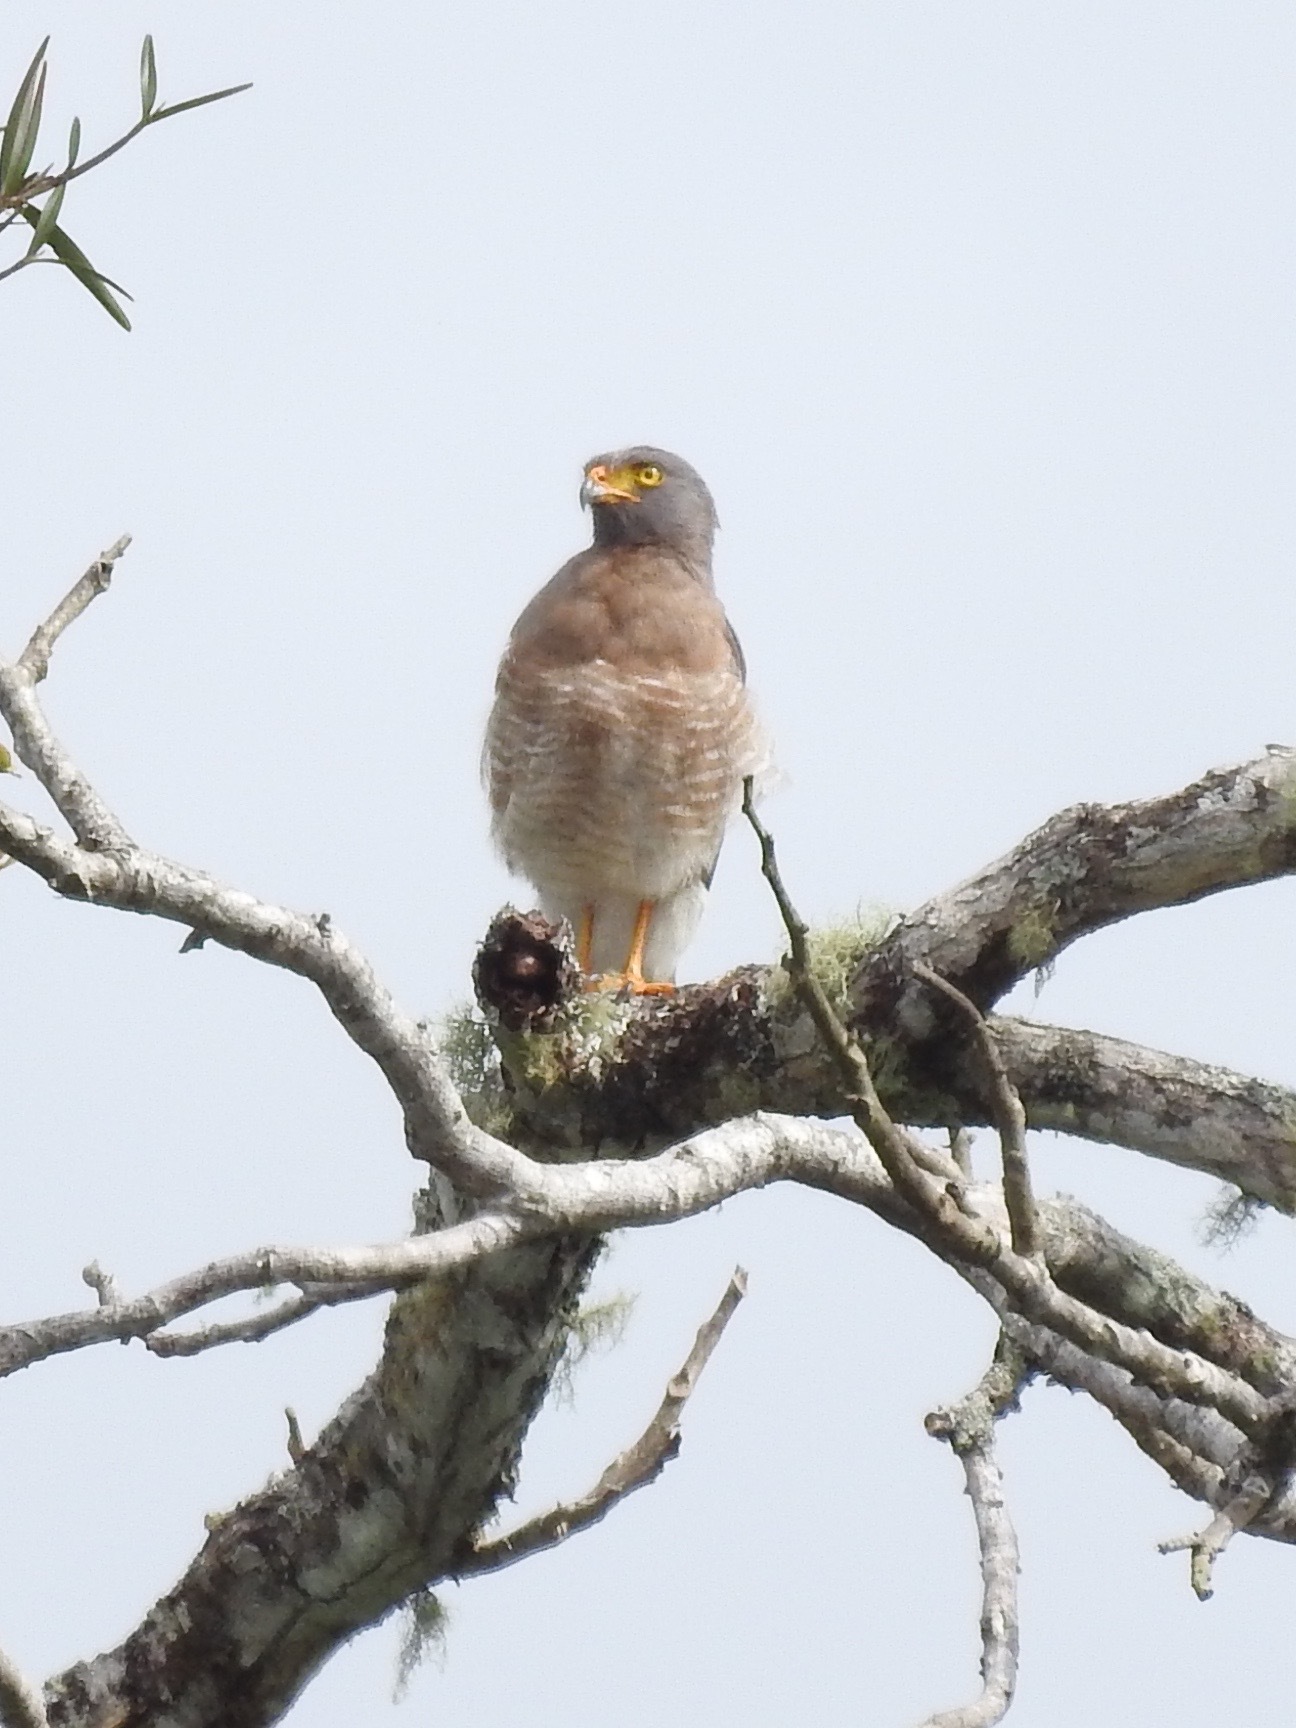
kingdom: Animalia
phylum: Chordata
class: Aves
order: Accipitriformes
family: Accipitridae
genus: Rupornis
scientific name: Rupornis magnirostris
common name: Roadside hawk
